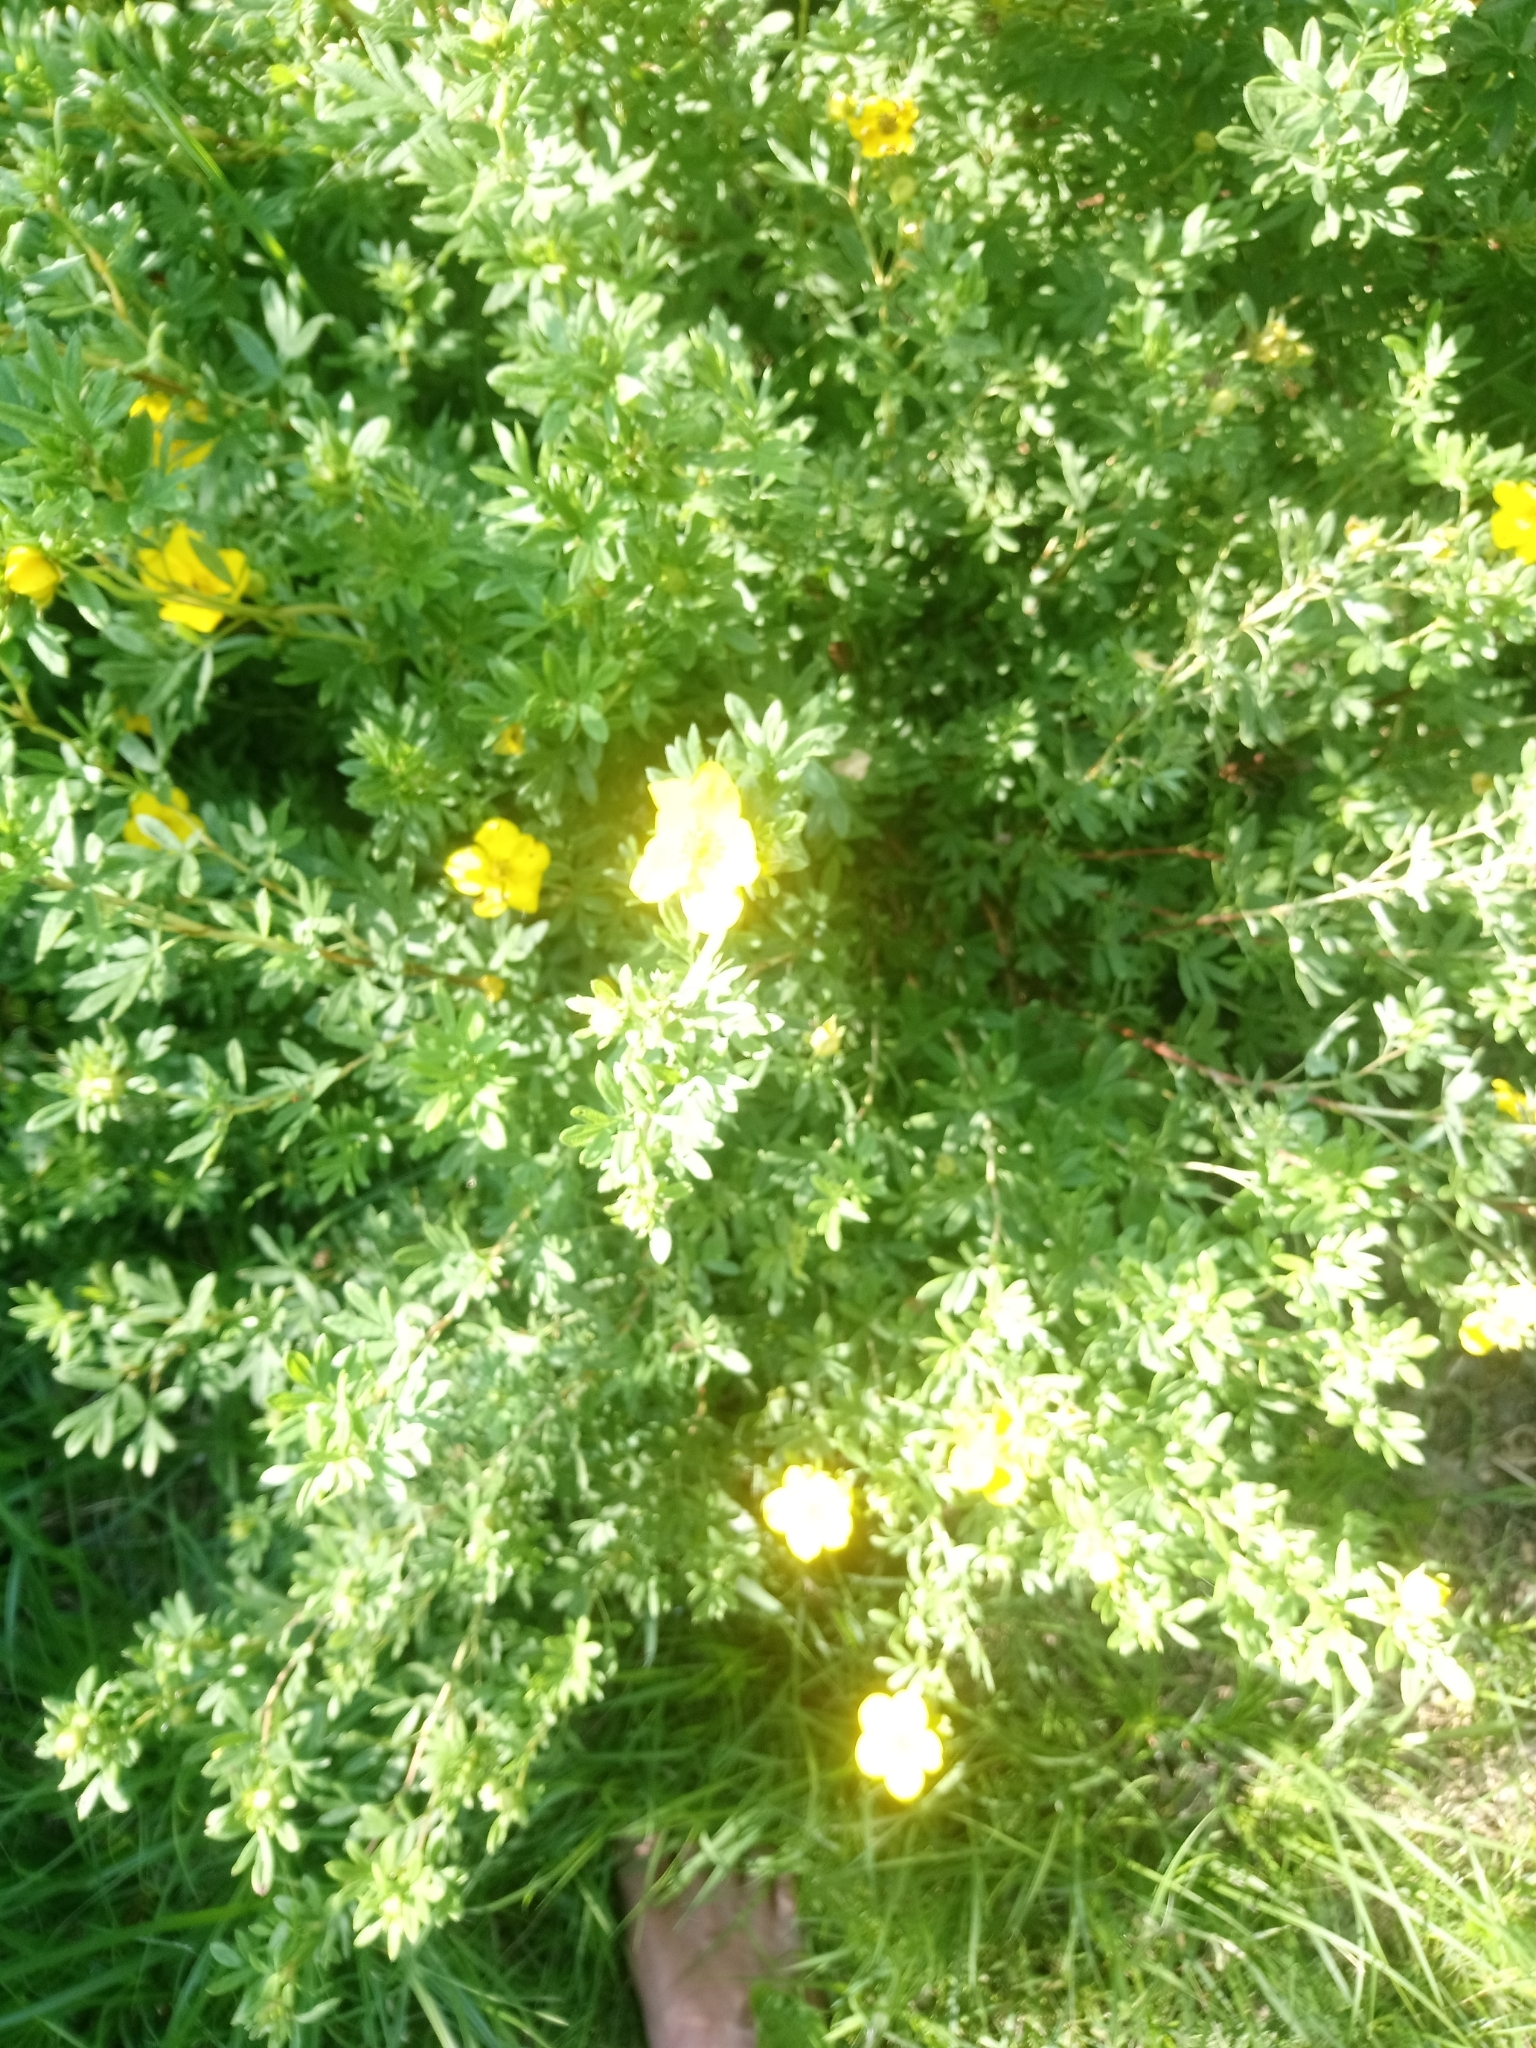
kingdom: Plantae
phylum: Tracheophyta
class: Magnoliopsida
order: Rosales
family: Rosaceae
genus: Dasiphora
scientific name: Dasiphora fruticosa
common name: Shrubby cinquefoil
